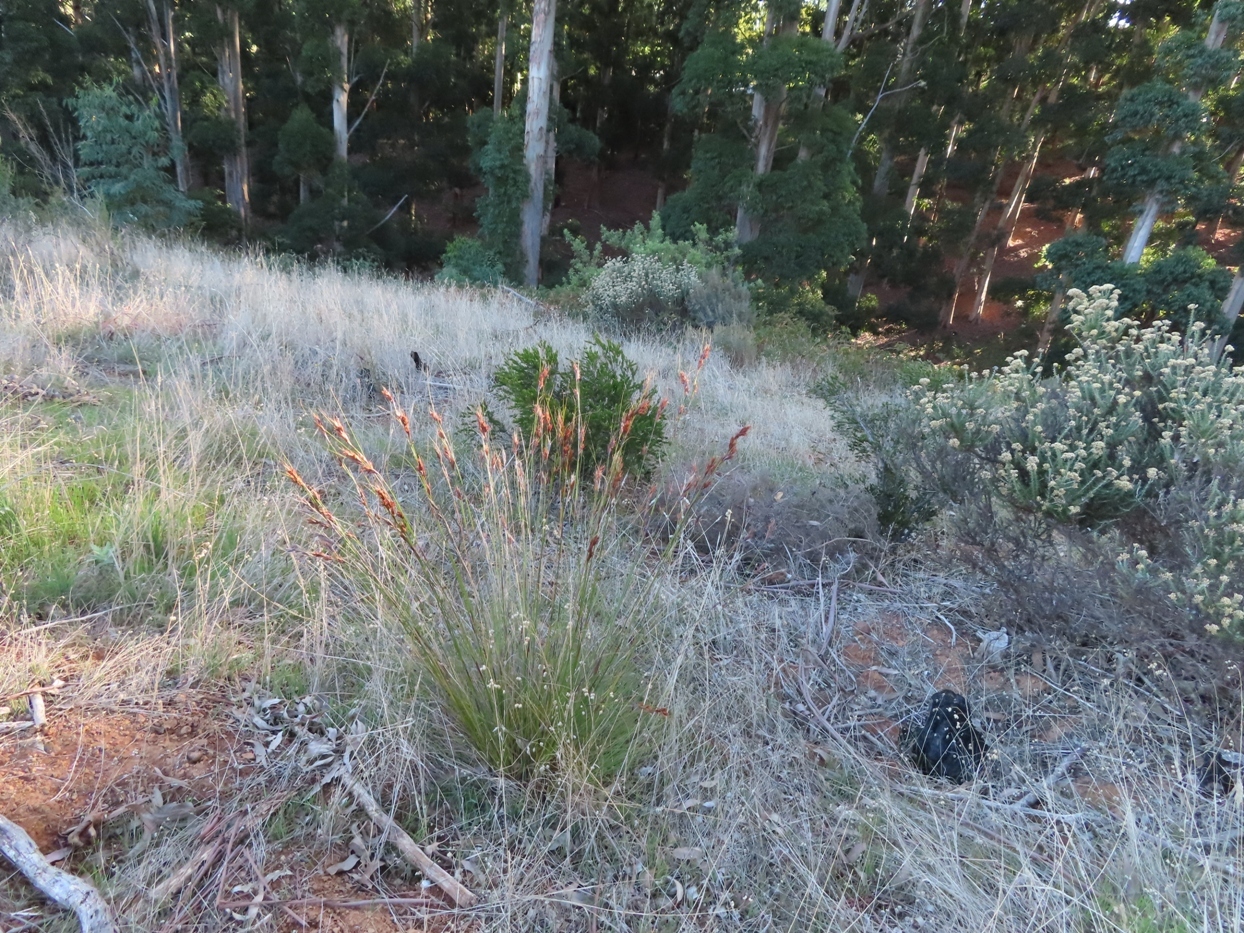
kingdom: Plantae
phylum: Tracheophyta
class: Liliopsida
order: Poales
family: Cyperaceae
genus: Tetraria
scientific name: Tetraria ustulata
